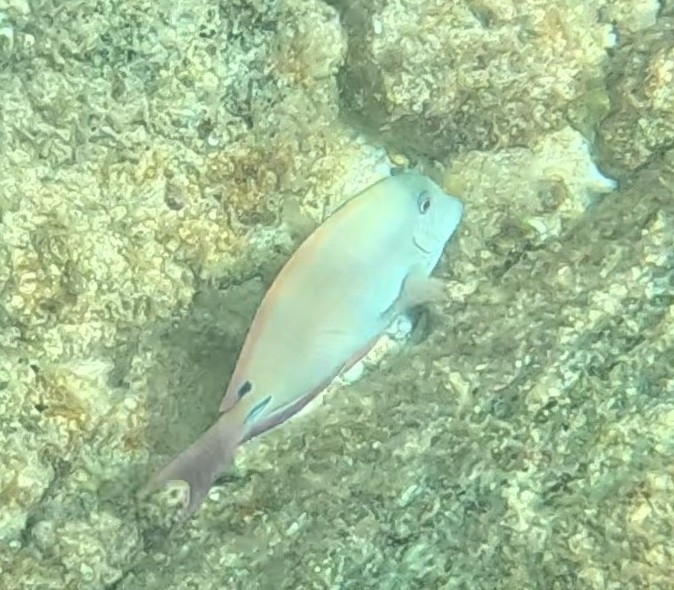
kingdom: Animalia
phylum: Chordata
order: Perciformes
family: Acanthuridae
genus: Acanthurus
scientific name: Acanthurus nigrofuscus
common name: Blackspot surgeonfish
